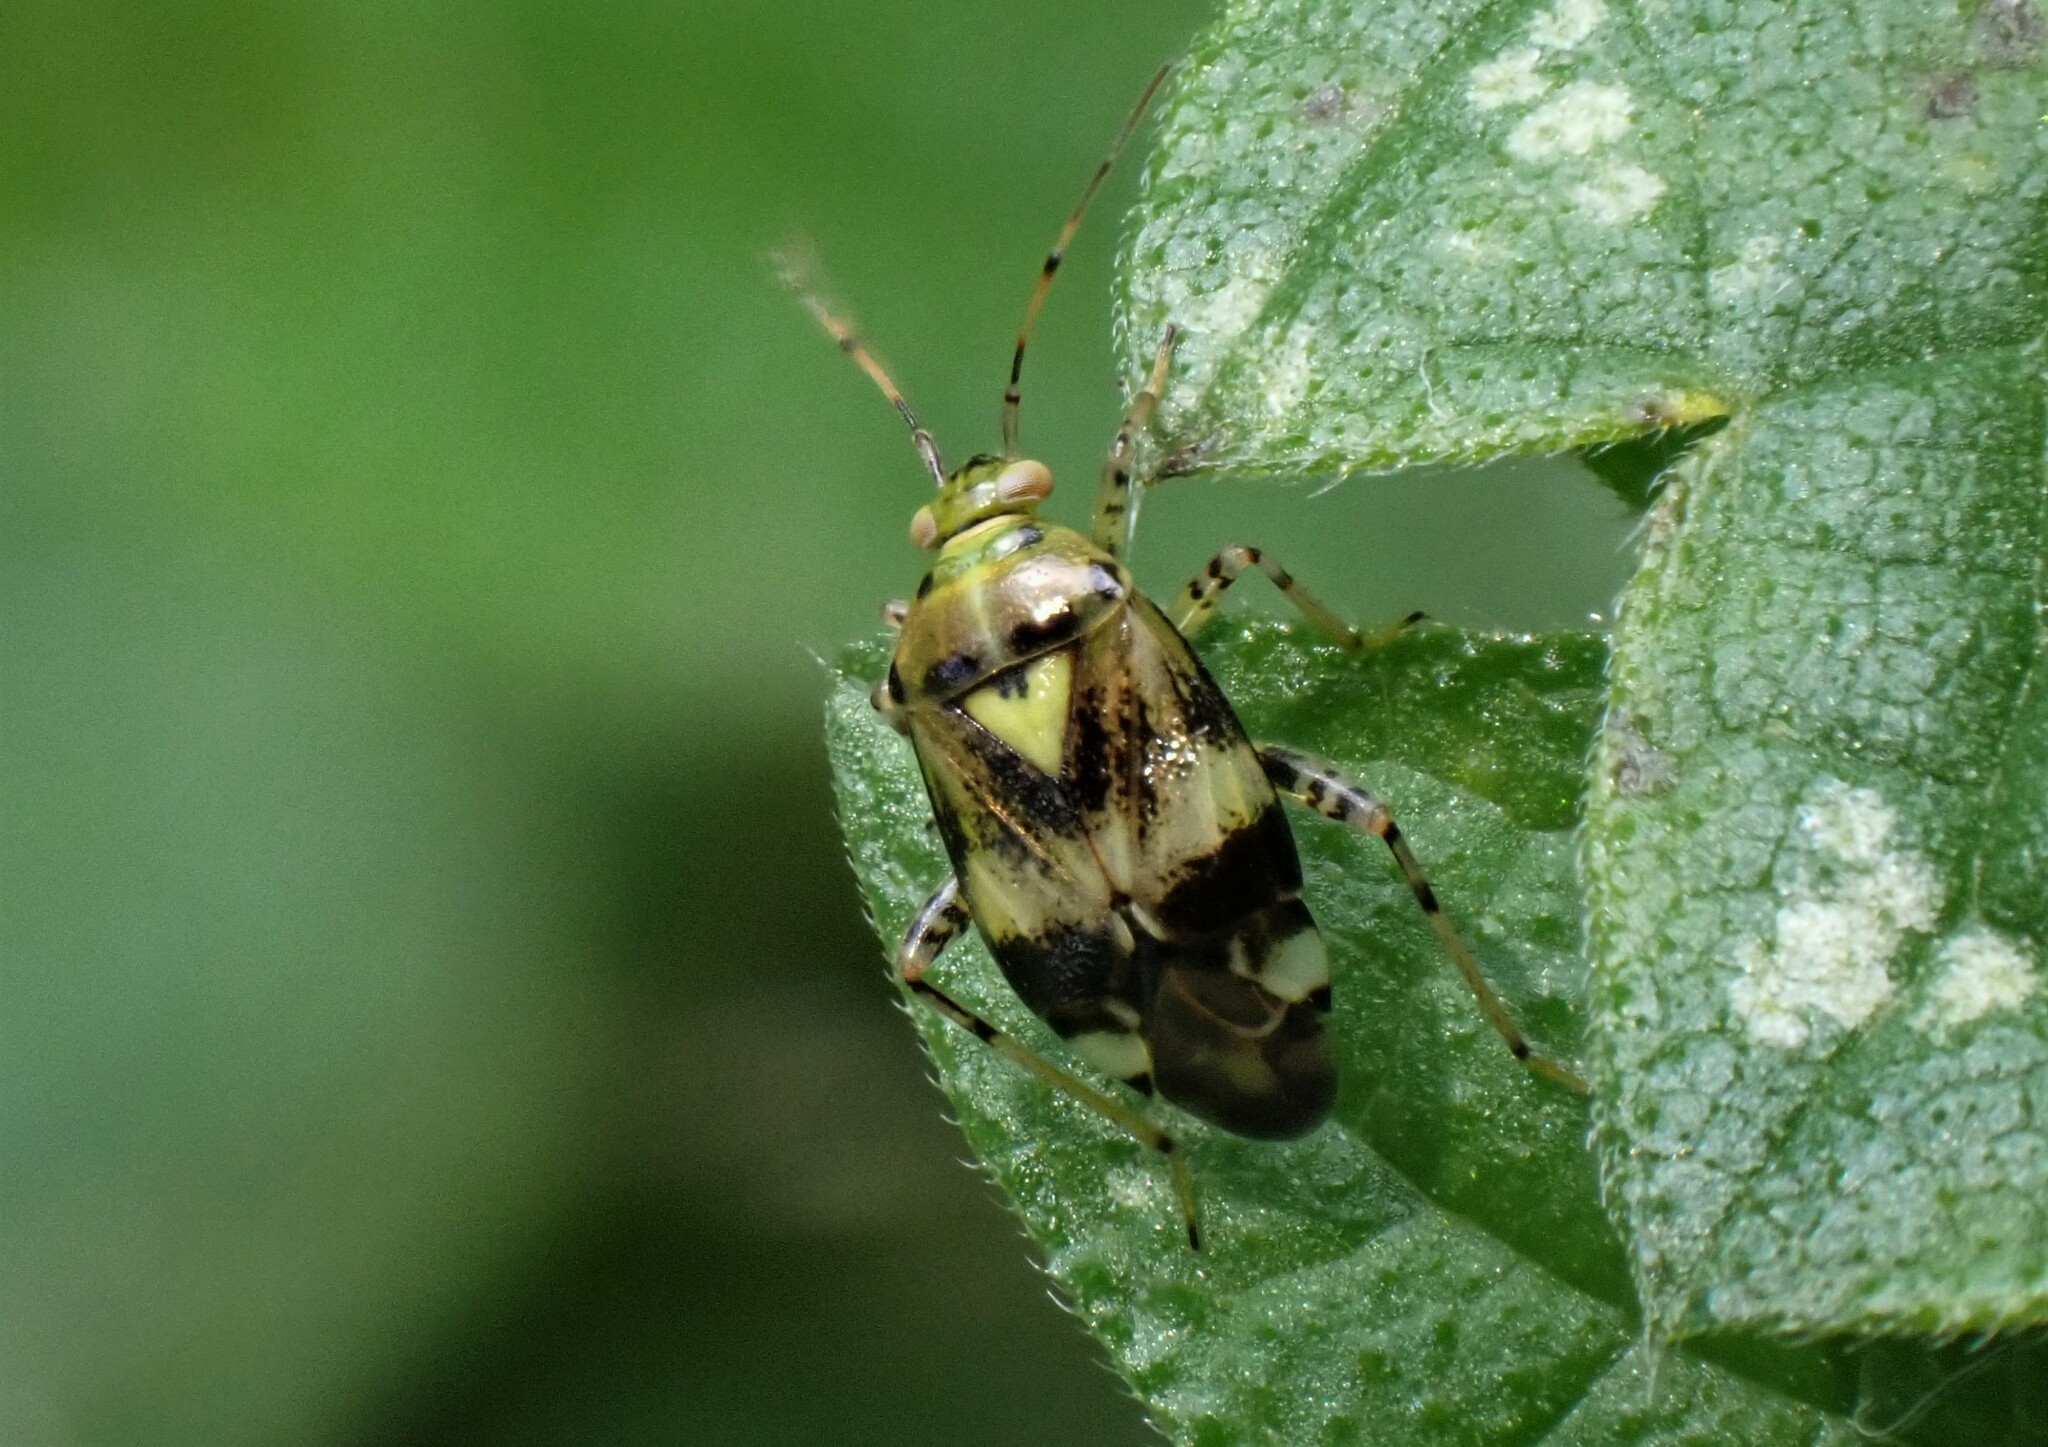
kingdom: Animalia
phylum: Arthropoda
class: Insecta
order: Hemiptera
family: Miridae
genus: Liocoris
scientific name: Liocoris tripustulatus
